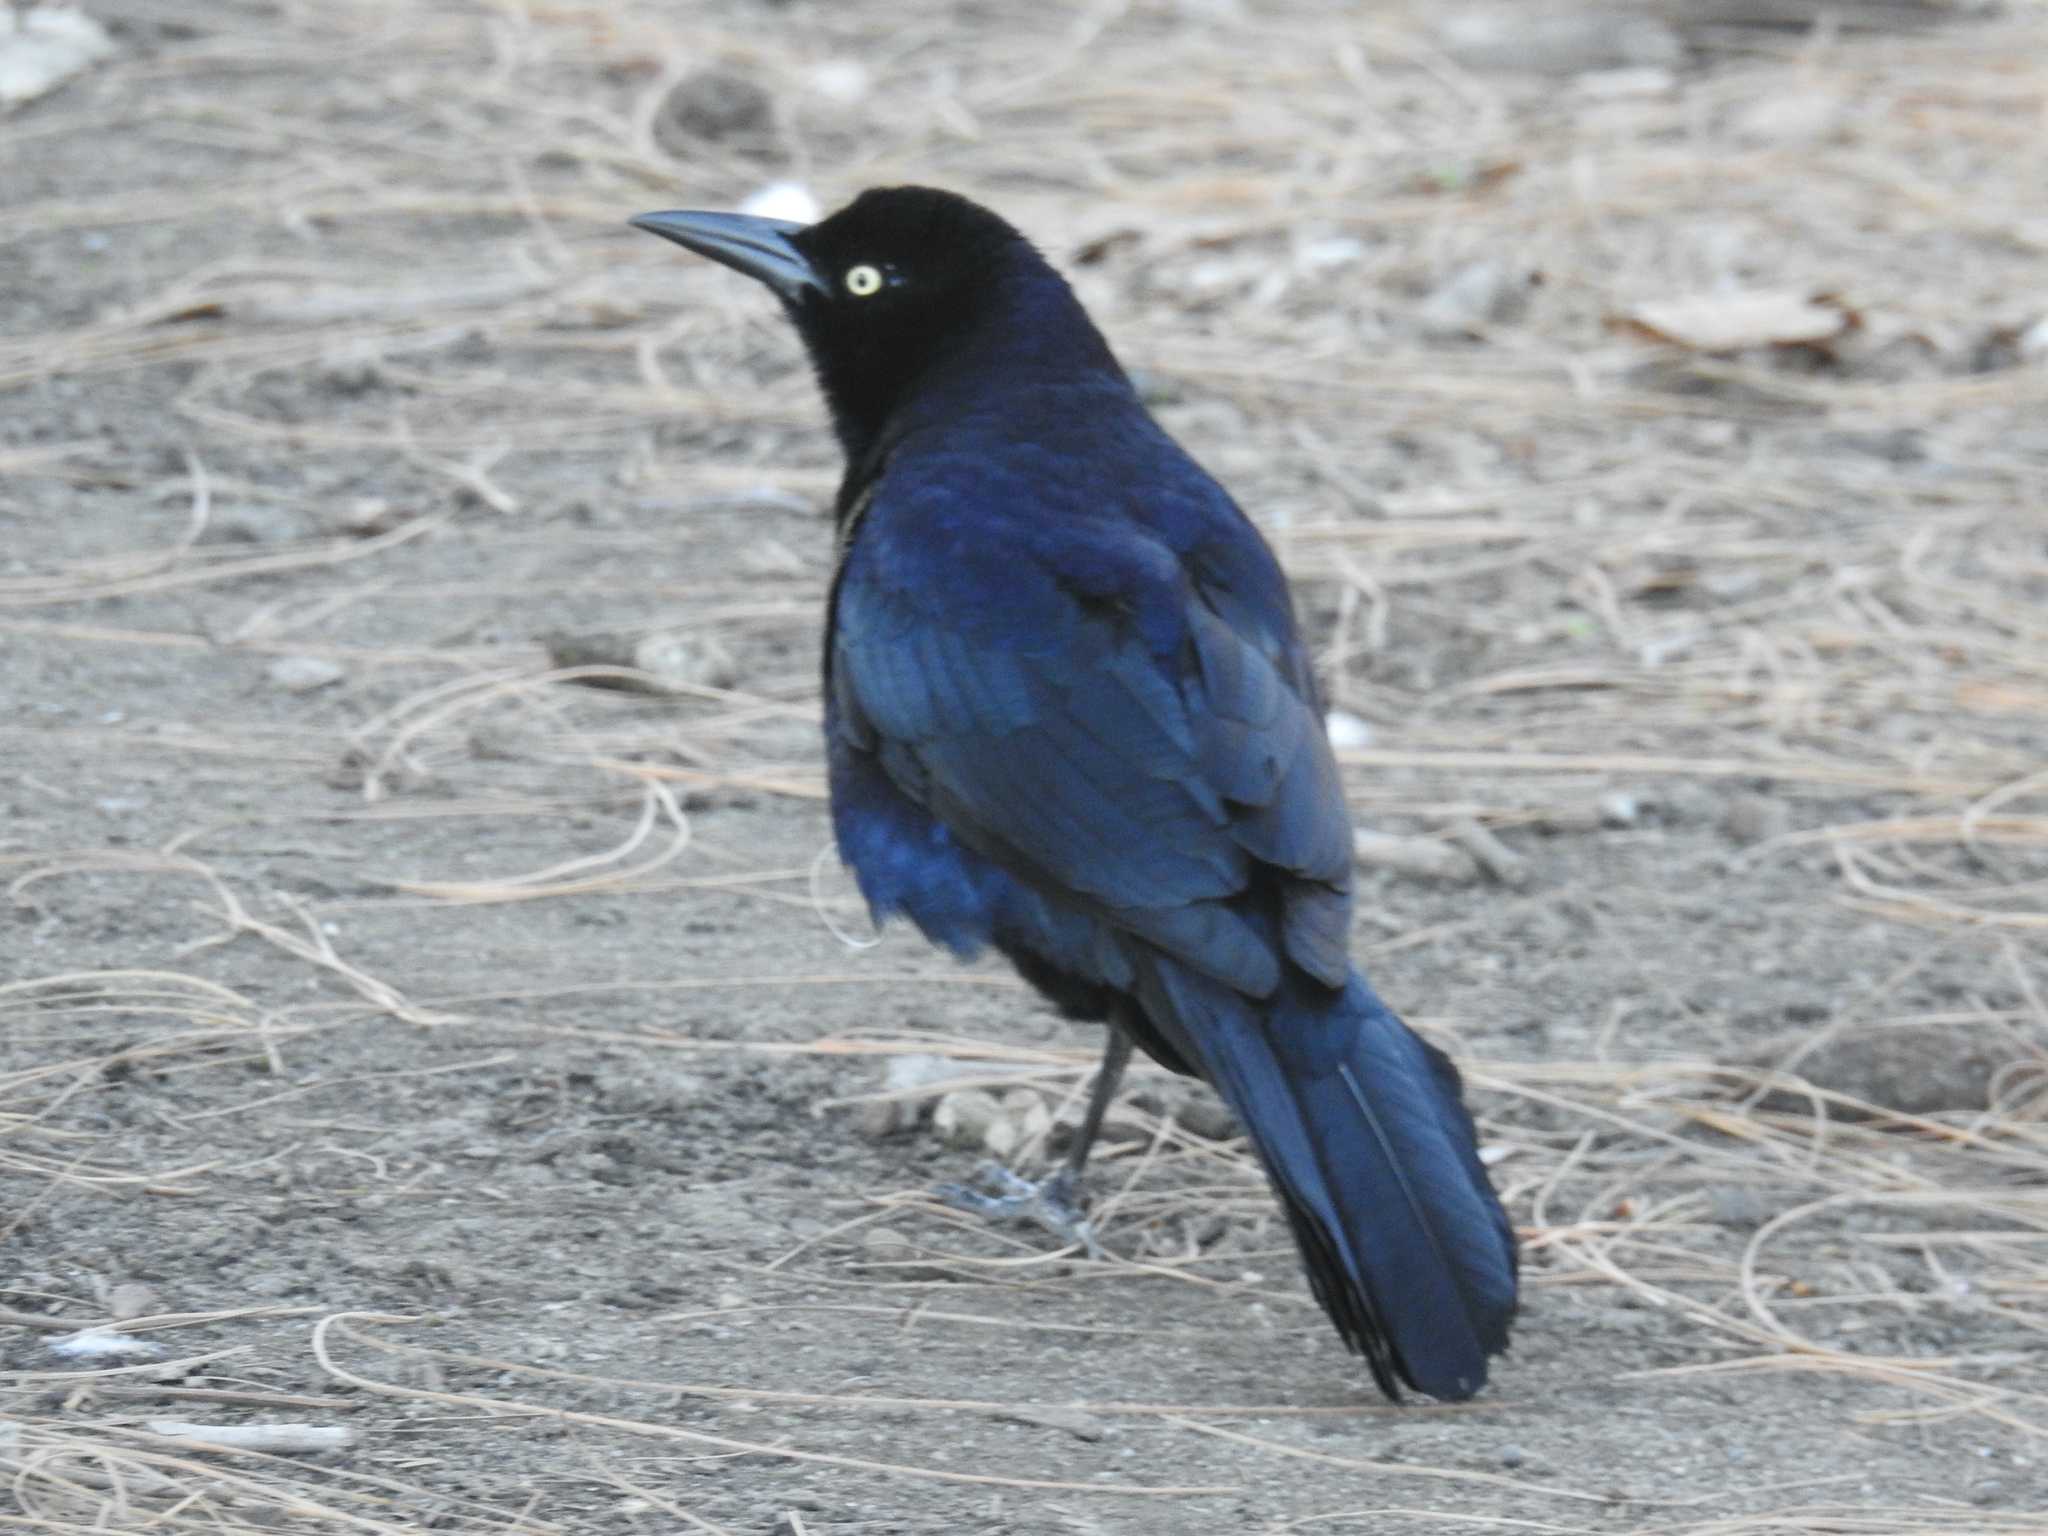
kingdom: Animalia
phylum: Chordata
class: Aves
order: Passeriformes
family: Icteridae
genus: Quiscalus
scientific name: Quiscalus mexicanus
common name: Great-tailed grackle
